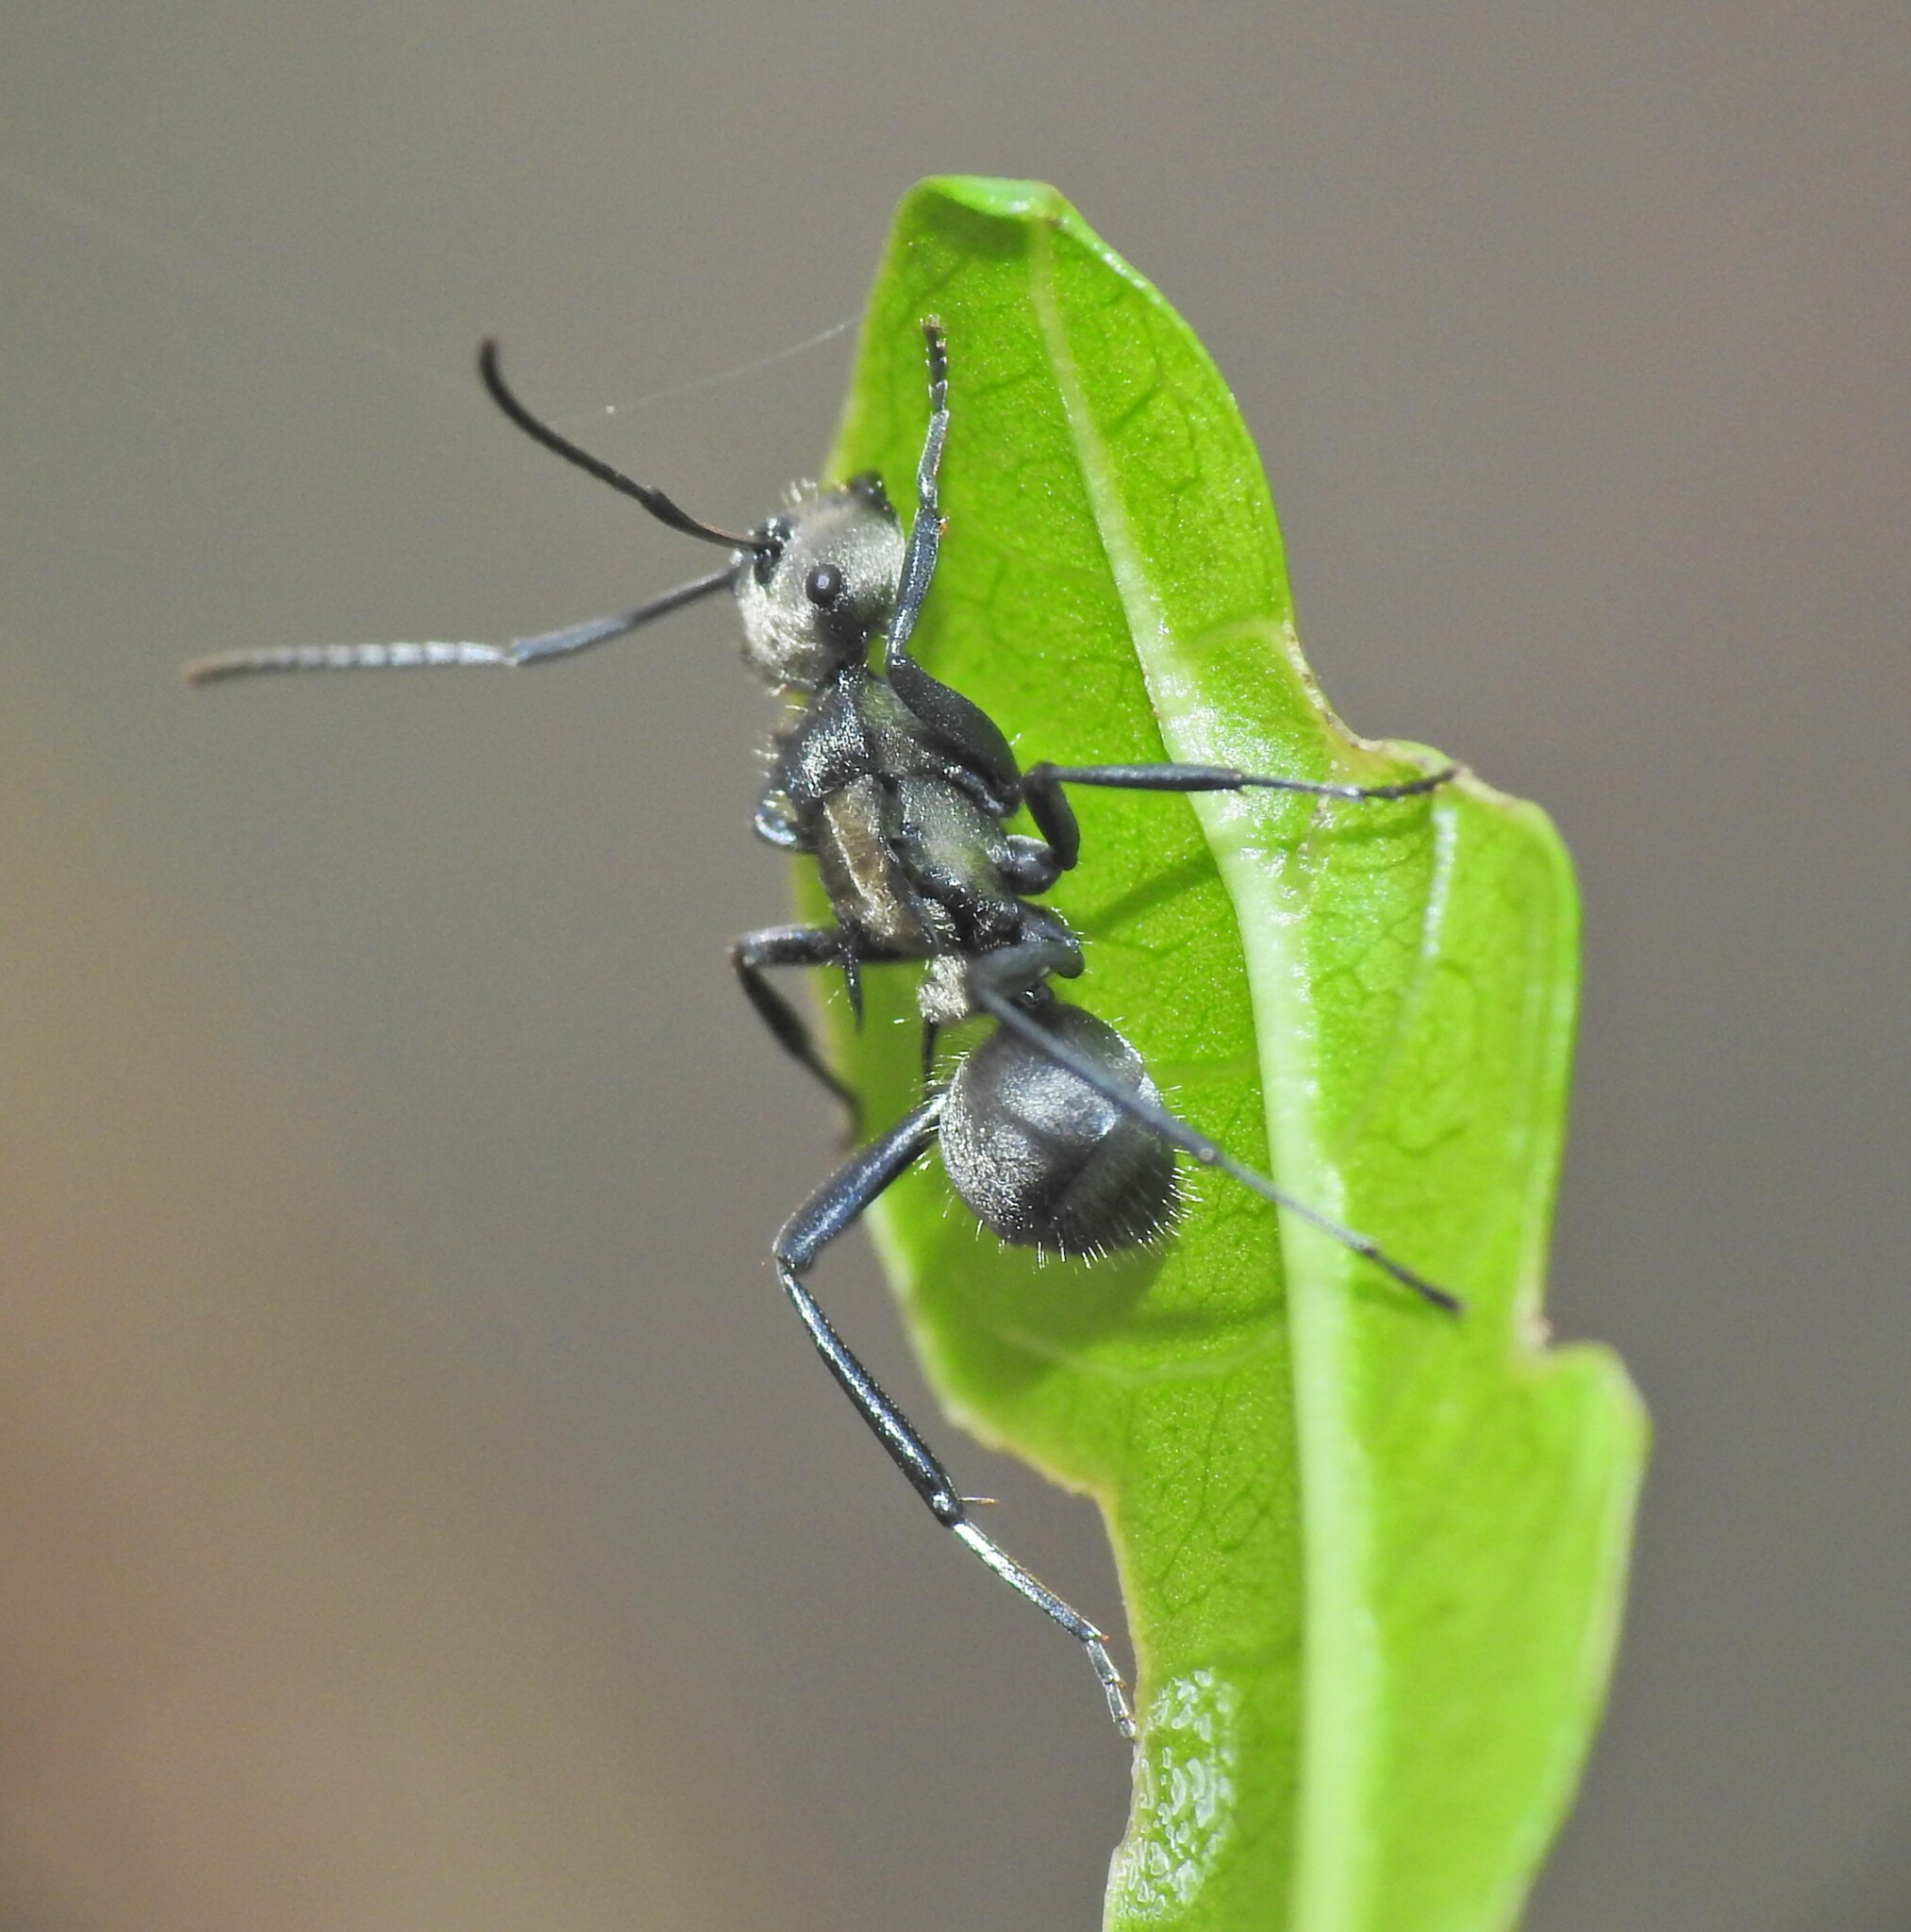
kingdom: Animalia
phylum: Arthropoda
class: Insecta
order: Hymenoptera
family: Formicidae
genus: Polyrhachis
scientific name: Polyrhachis daemeli
